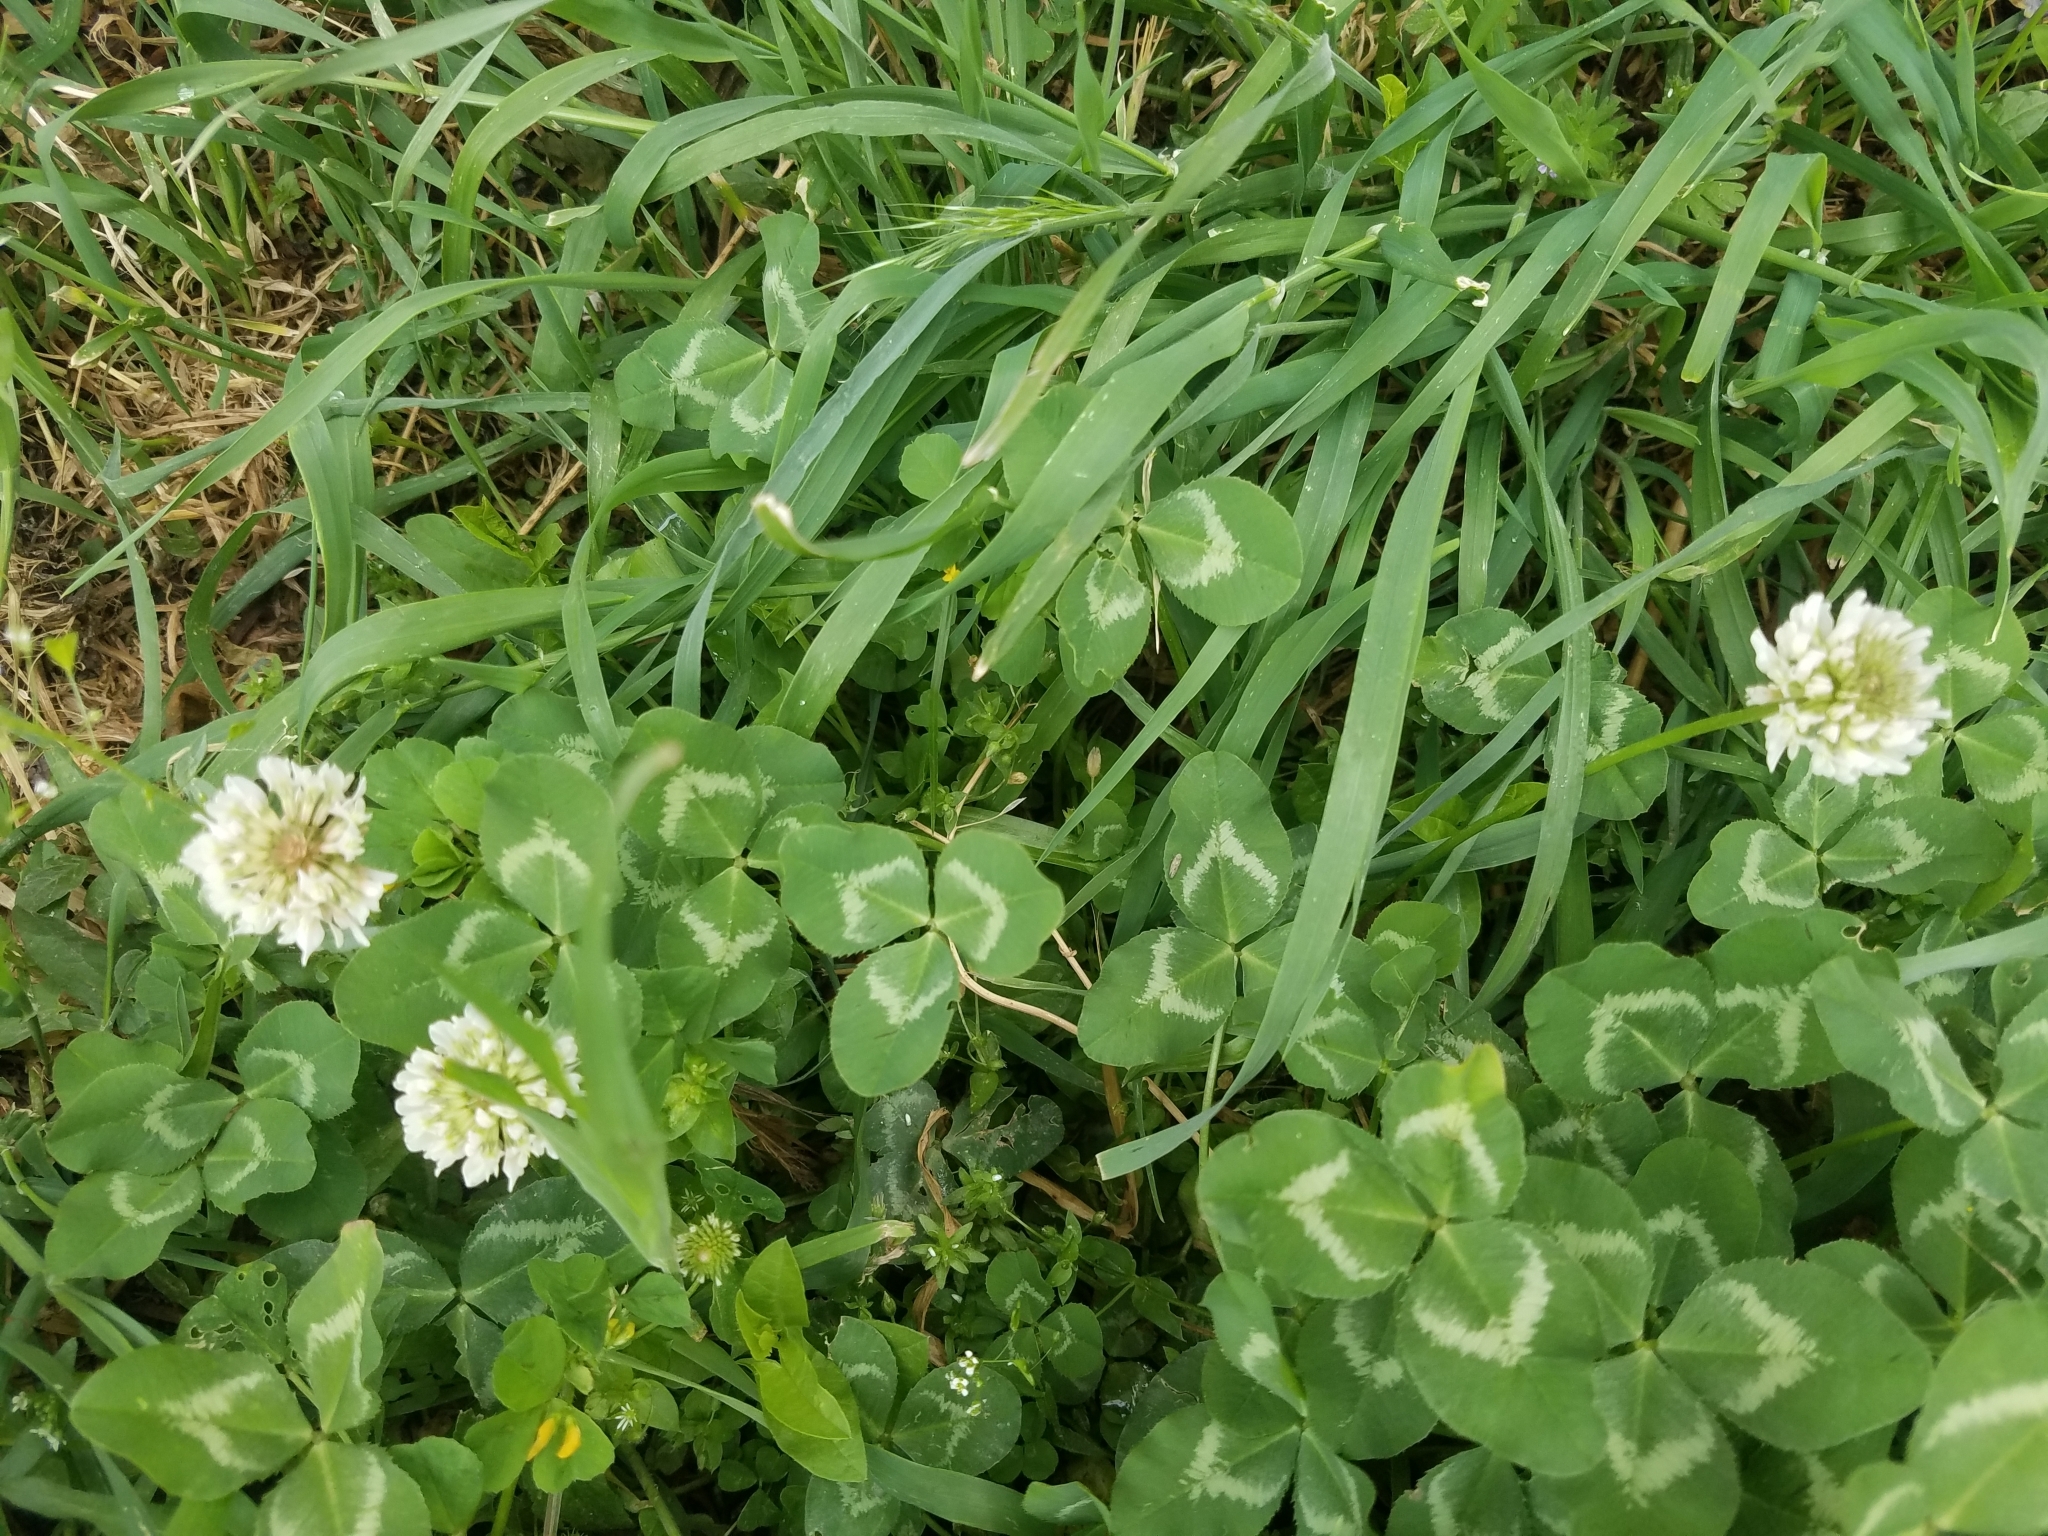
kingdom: Plantae
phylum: Tracheophyta
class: Magnoliopsida
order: Fabales
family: Fabaceae
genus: Trifolium
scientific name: Trifolium repens
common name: White clover
